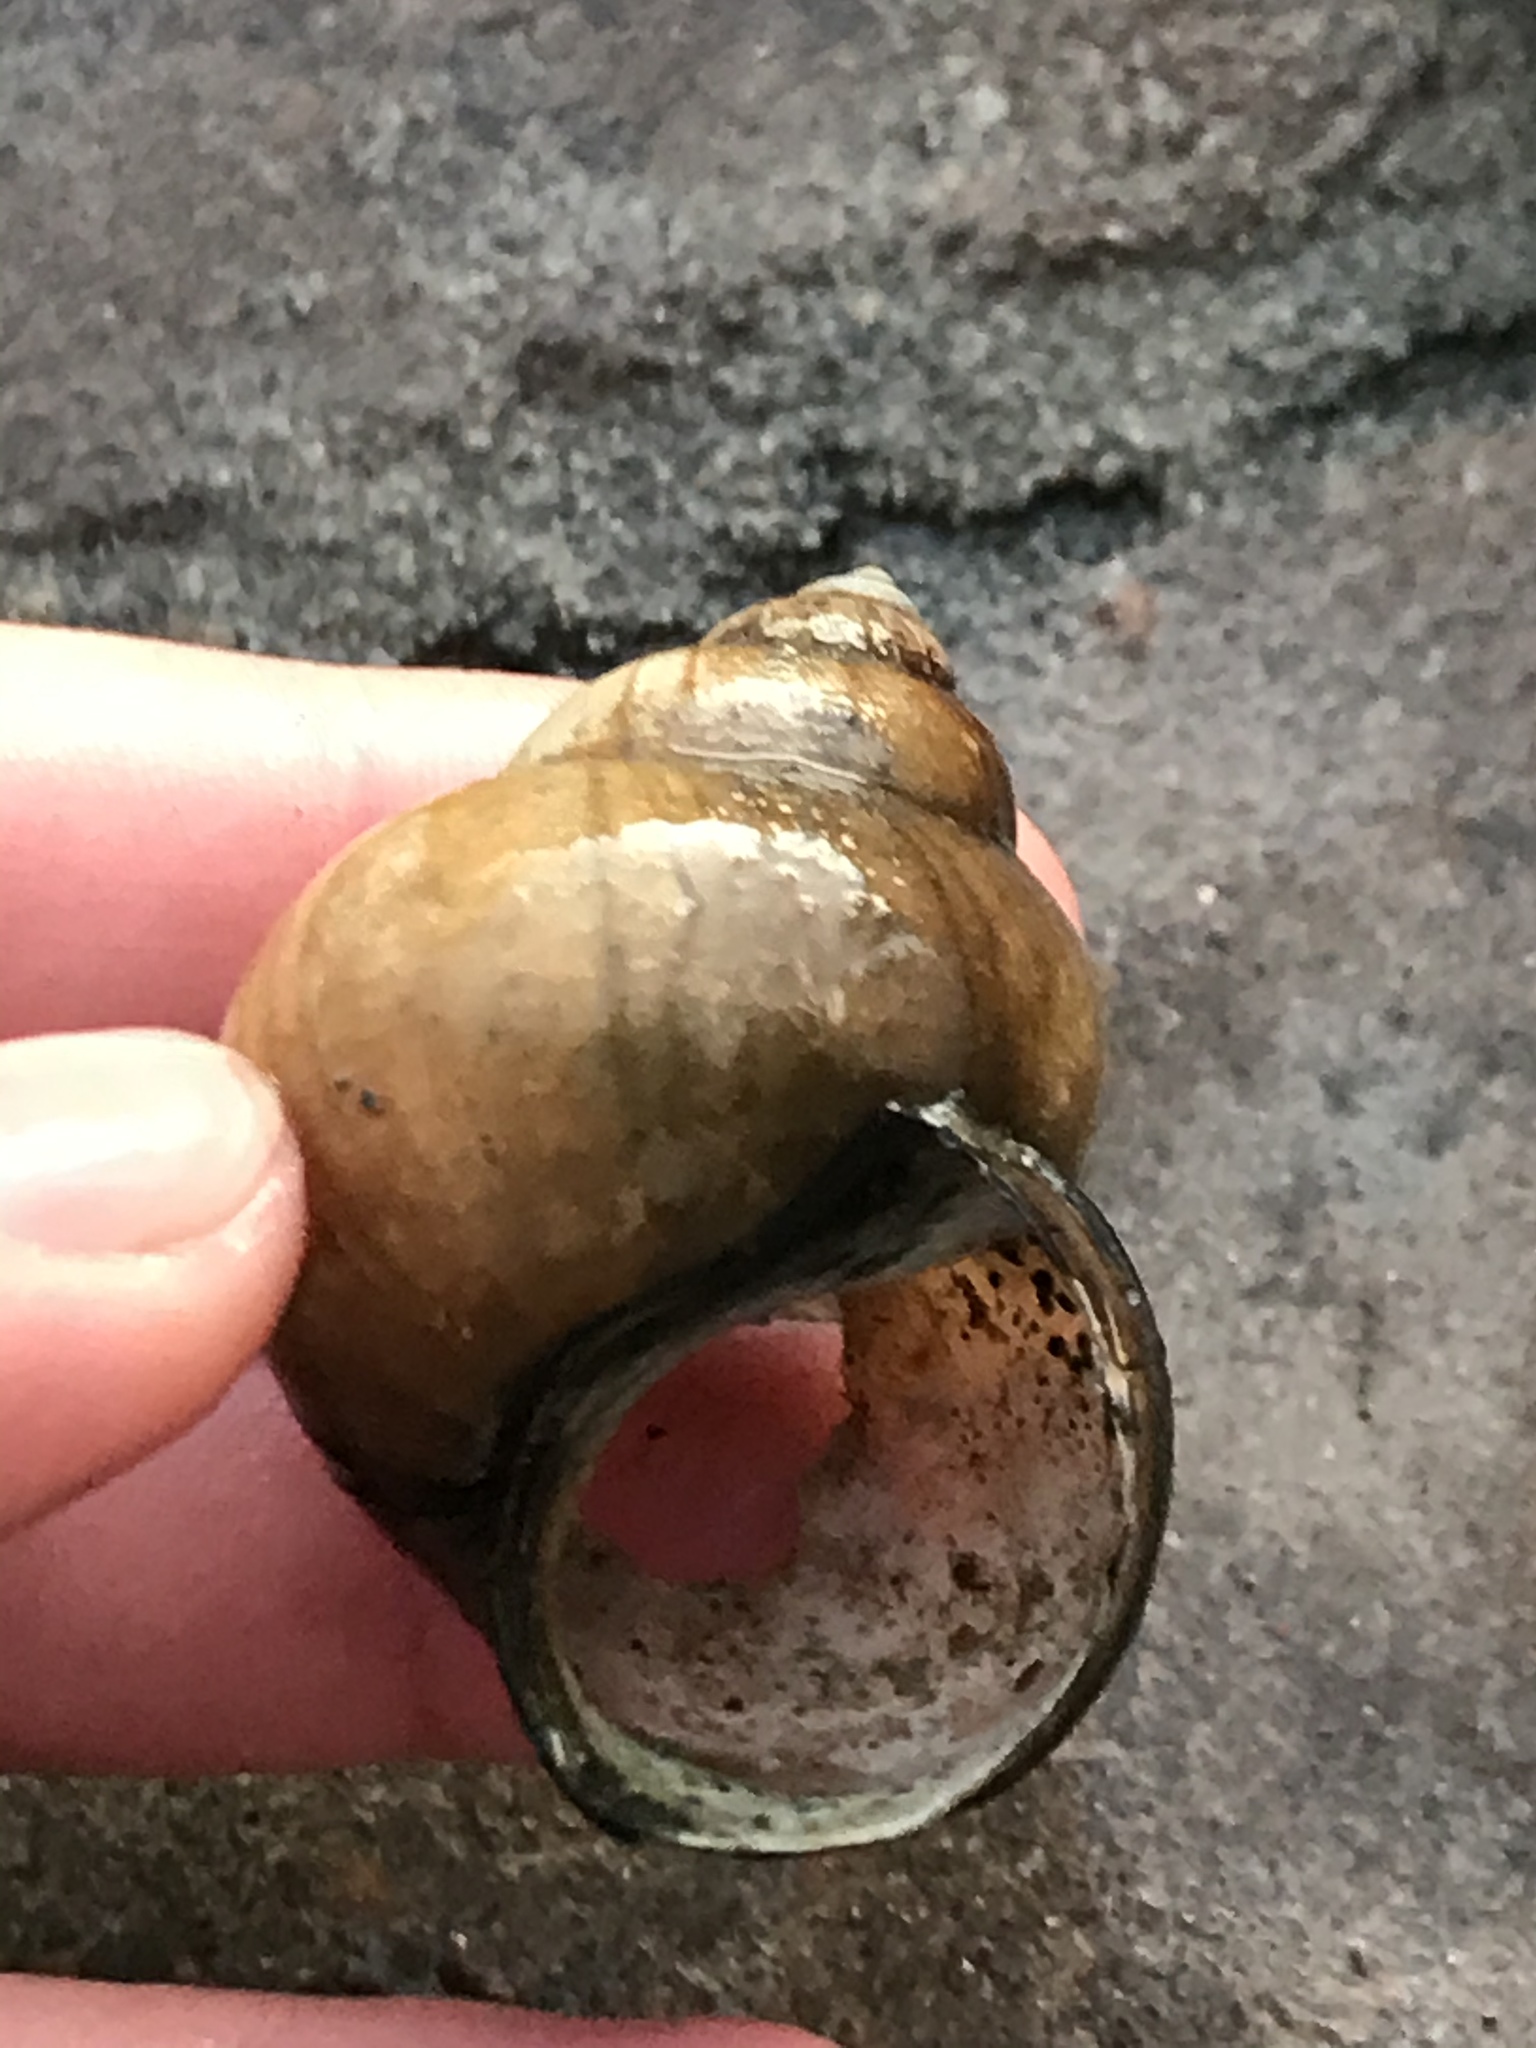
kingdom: Animalia
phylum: Mollusca
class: Gastropoda
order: Architaenioglossa
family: Viviparidae
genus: Cipangopaludina
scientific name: Cipangopaludina chinensis
